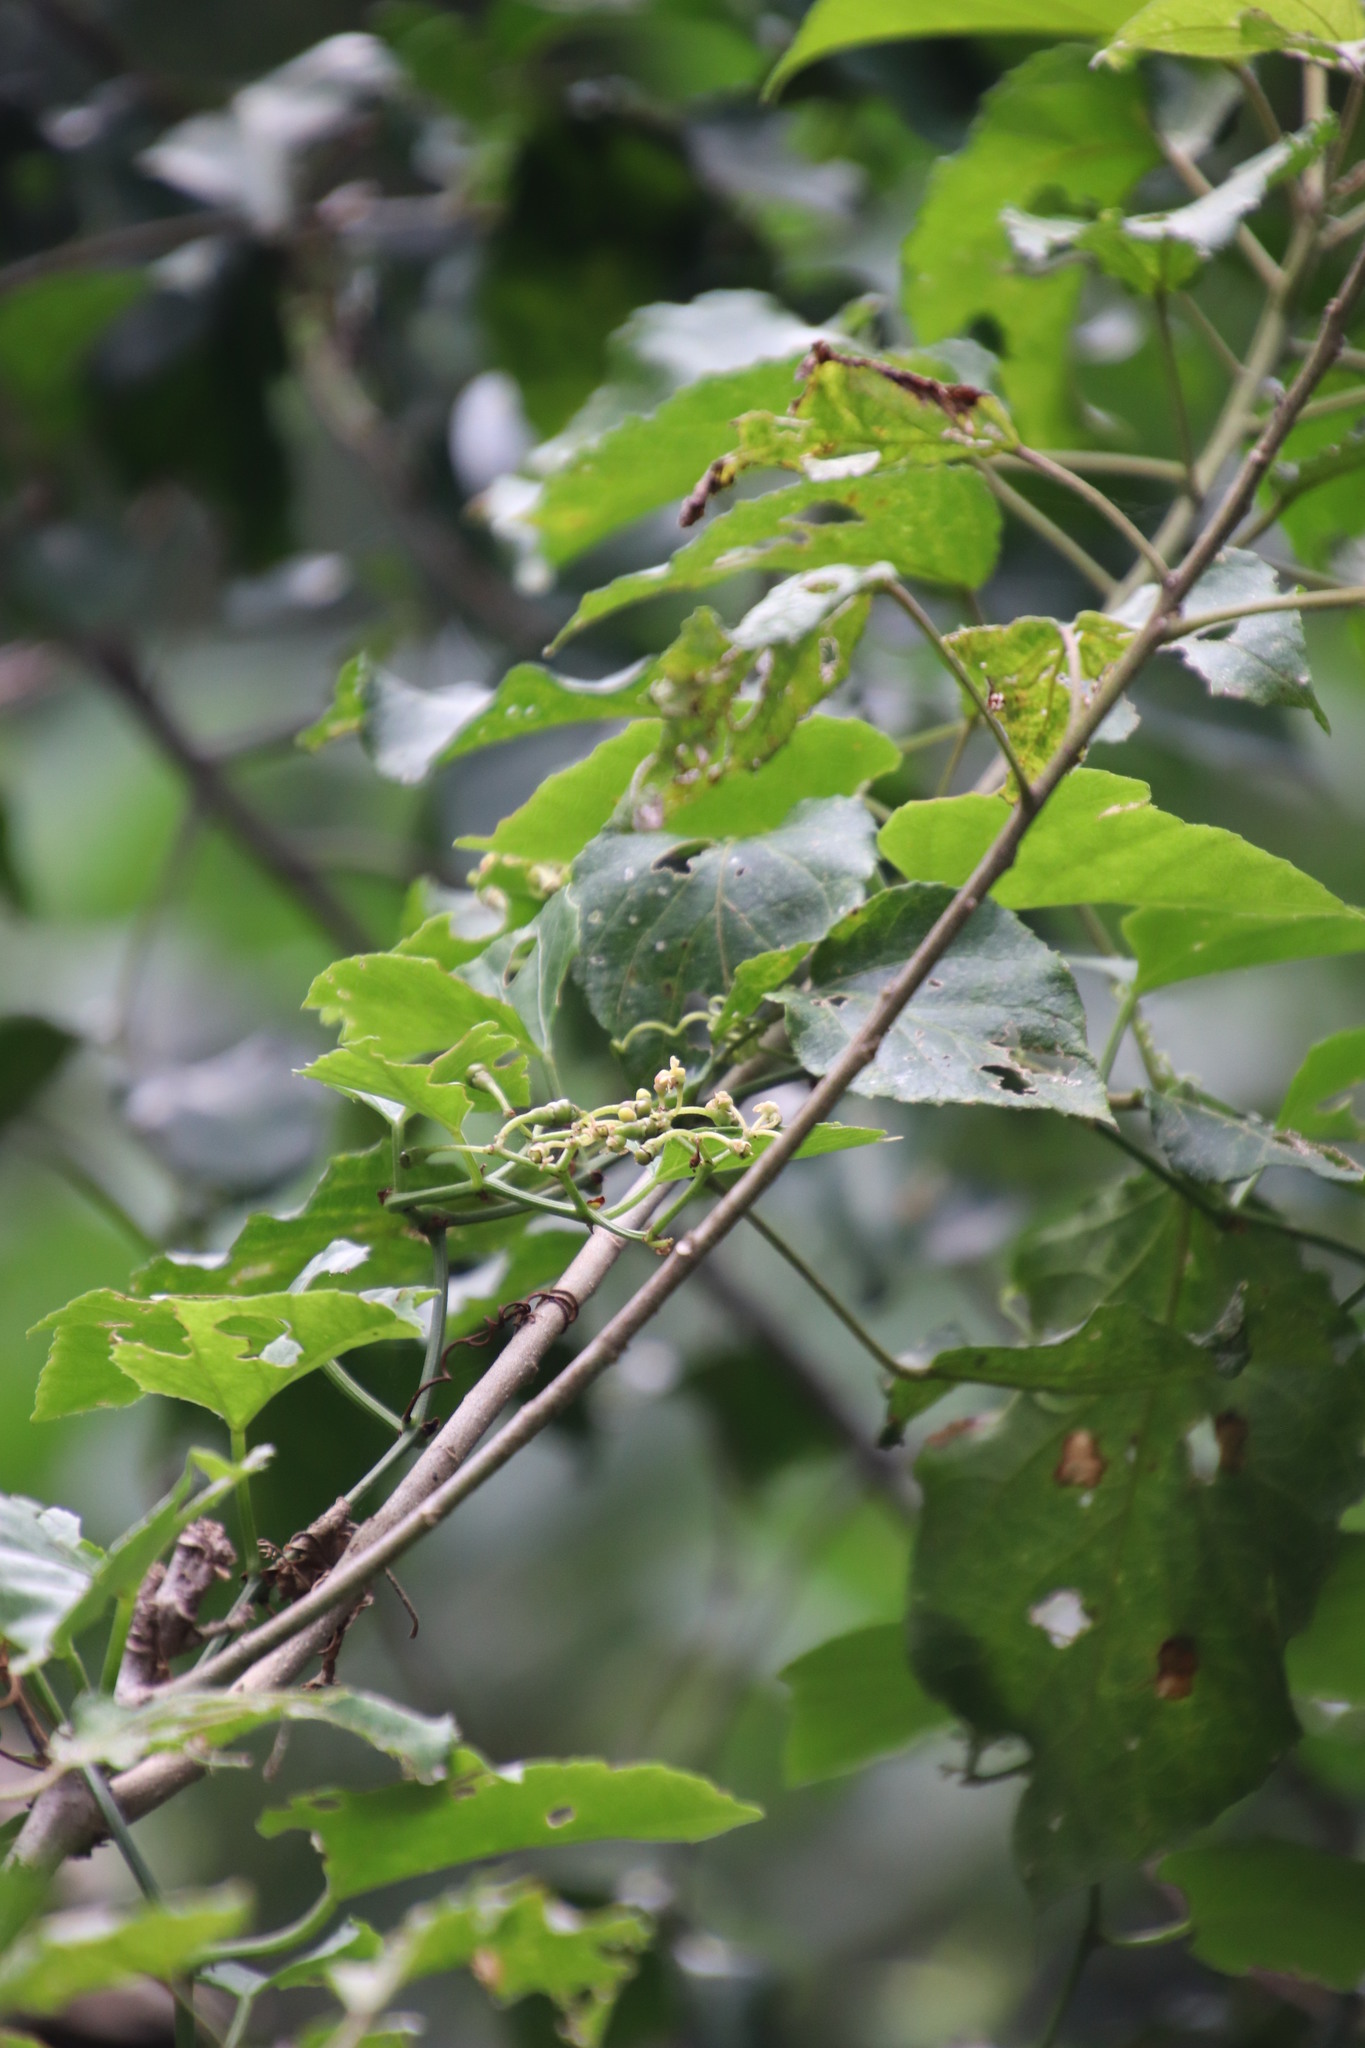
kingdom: Plantae
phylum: Tracheophyta
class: Magnoliopsida
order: Vitales
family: Vitaceae
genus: Cissus
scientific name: Cissus fragilis
